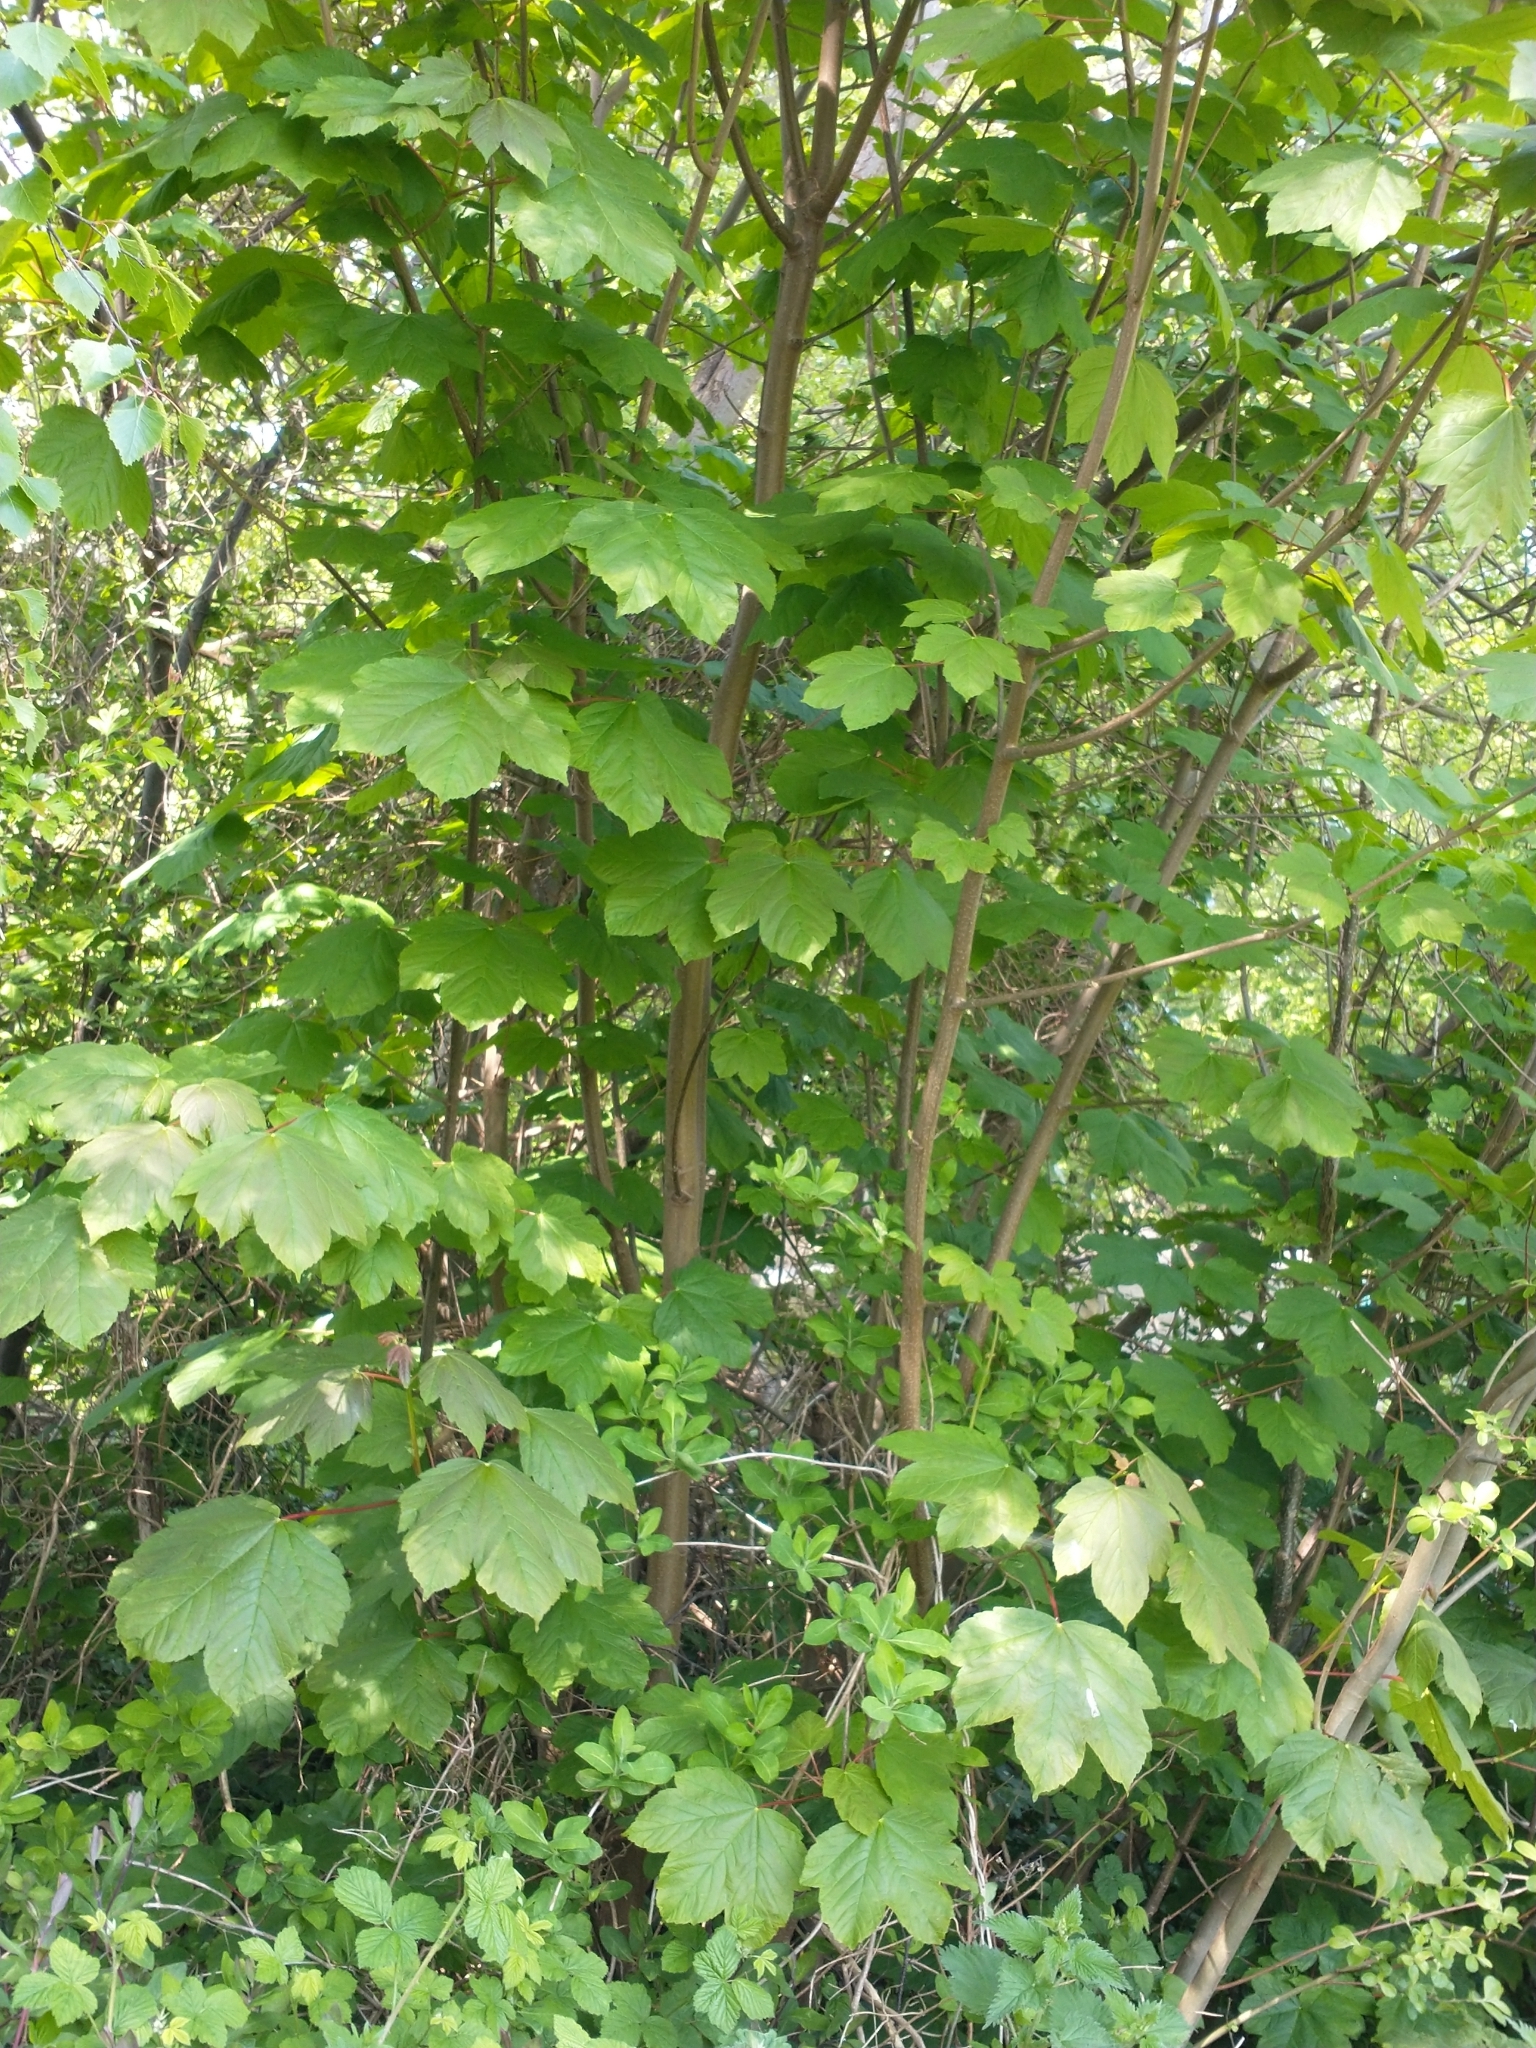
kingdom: Plantae
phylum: Tracheophyta
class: Magnoliopsida
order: Sapindales
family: Sapindaceae
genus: Acer
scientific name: Acer pseudoplatanus
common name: Sycamore
